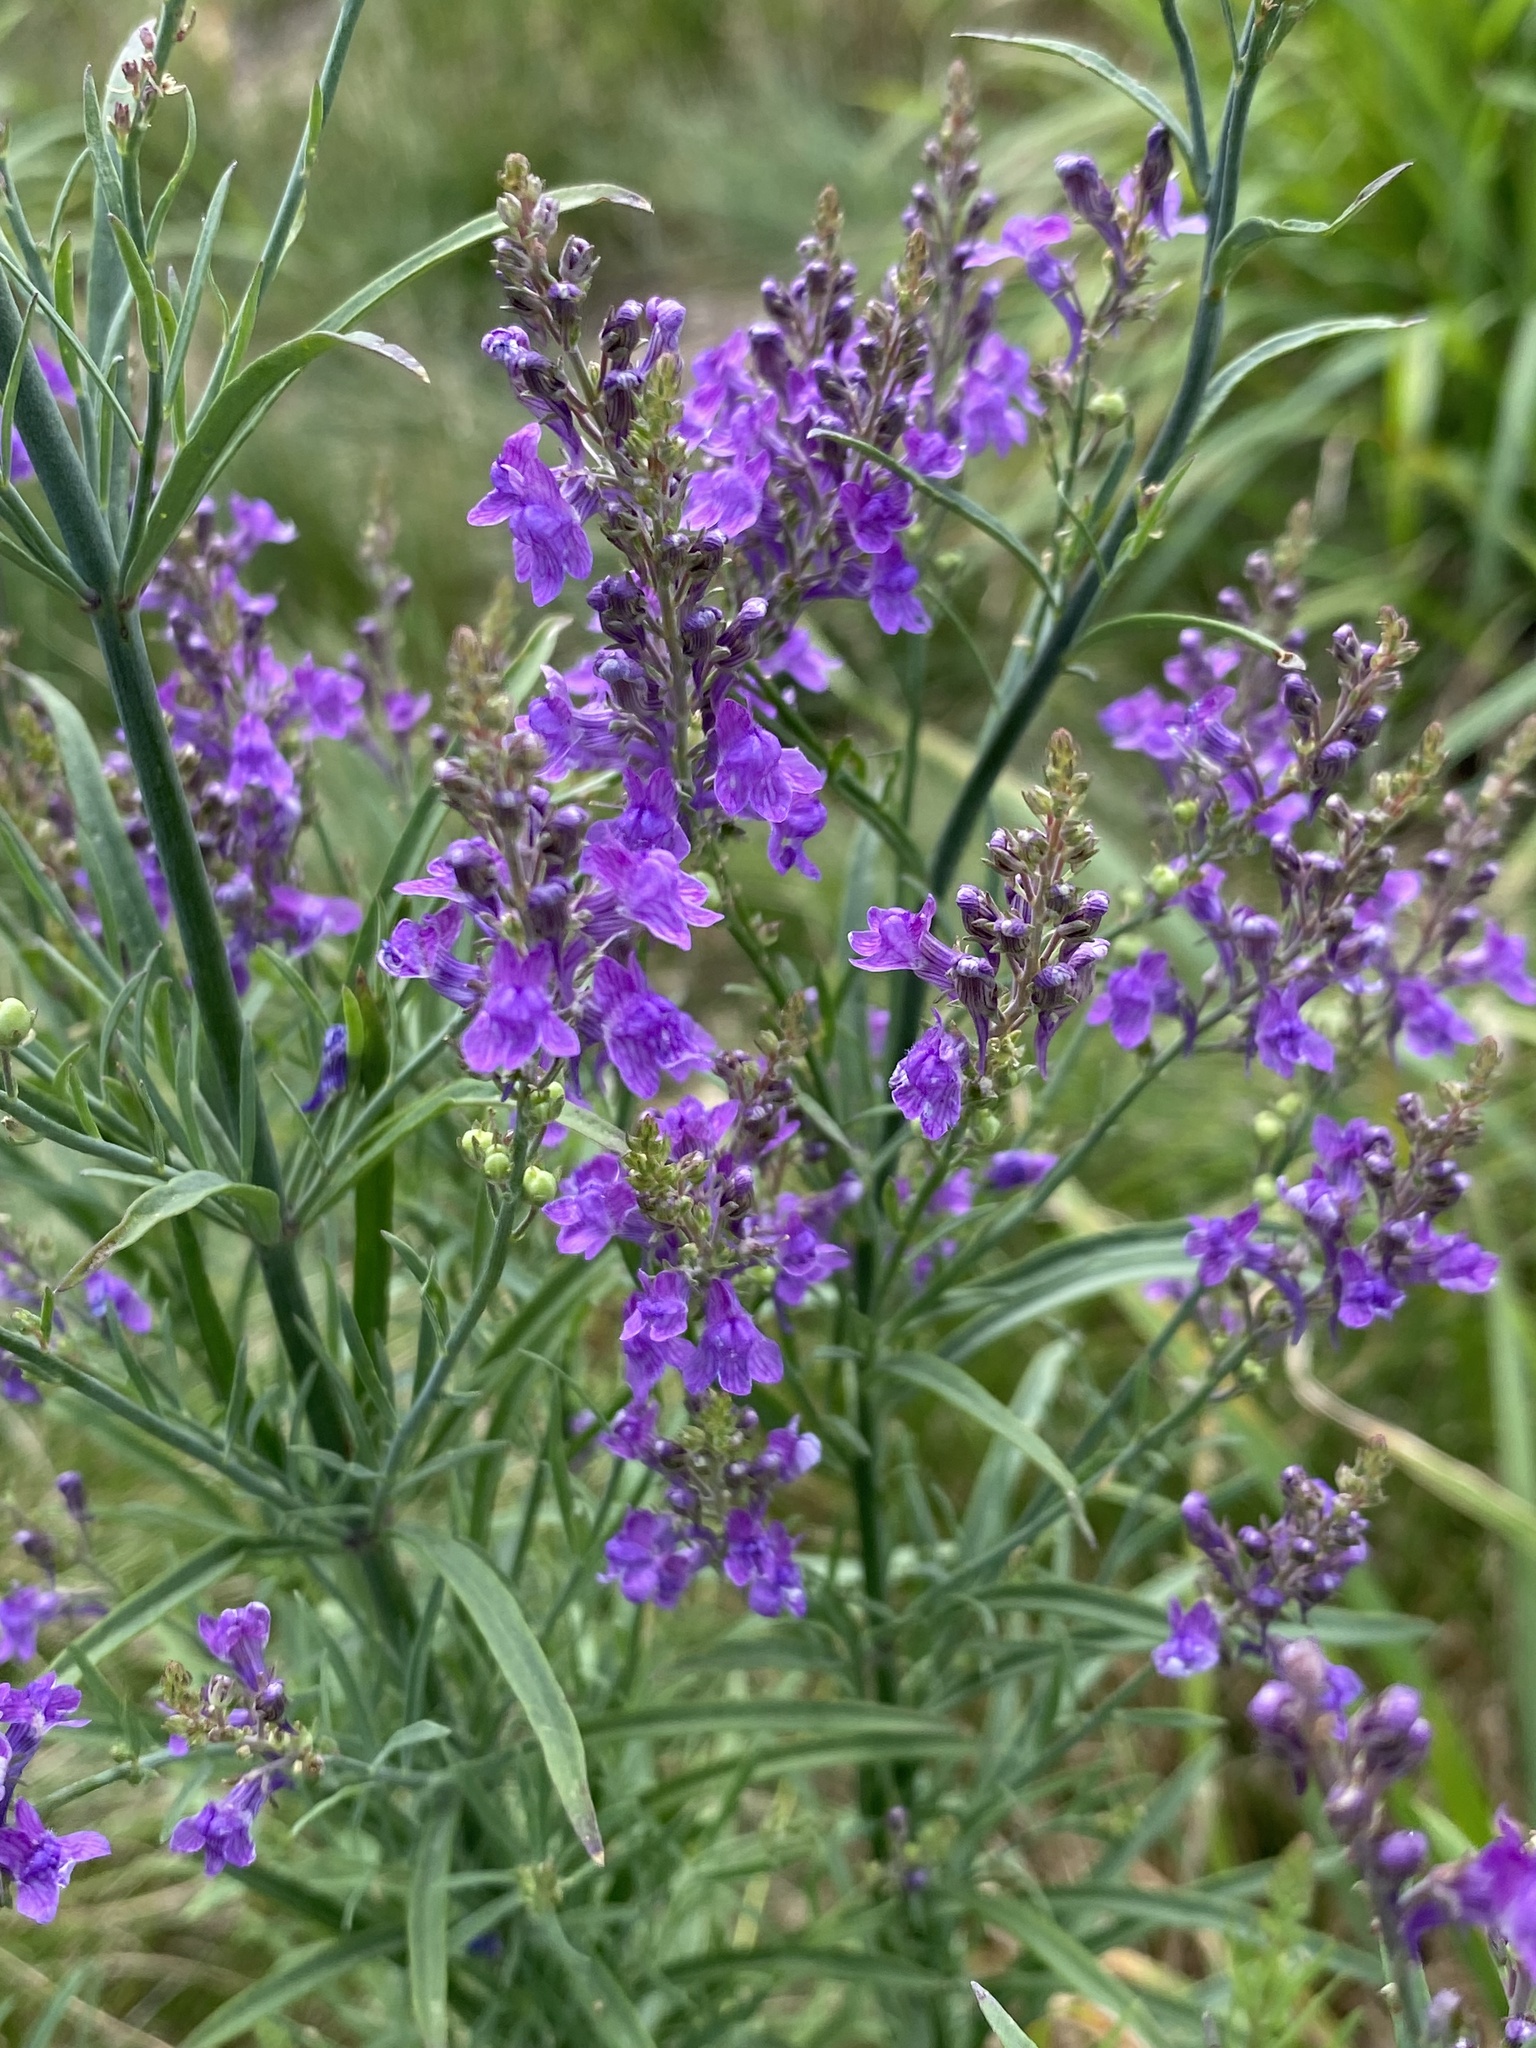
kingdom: Plantae
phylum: Tracheophyta
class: Magnoliopsida
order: Lamiales
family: Plantaginaceae
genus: Linaria
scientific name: Linaria purpurea
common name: Purple toadflax
